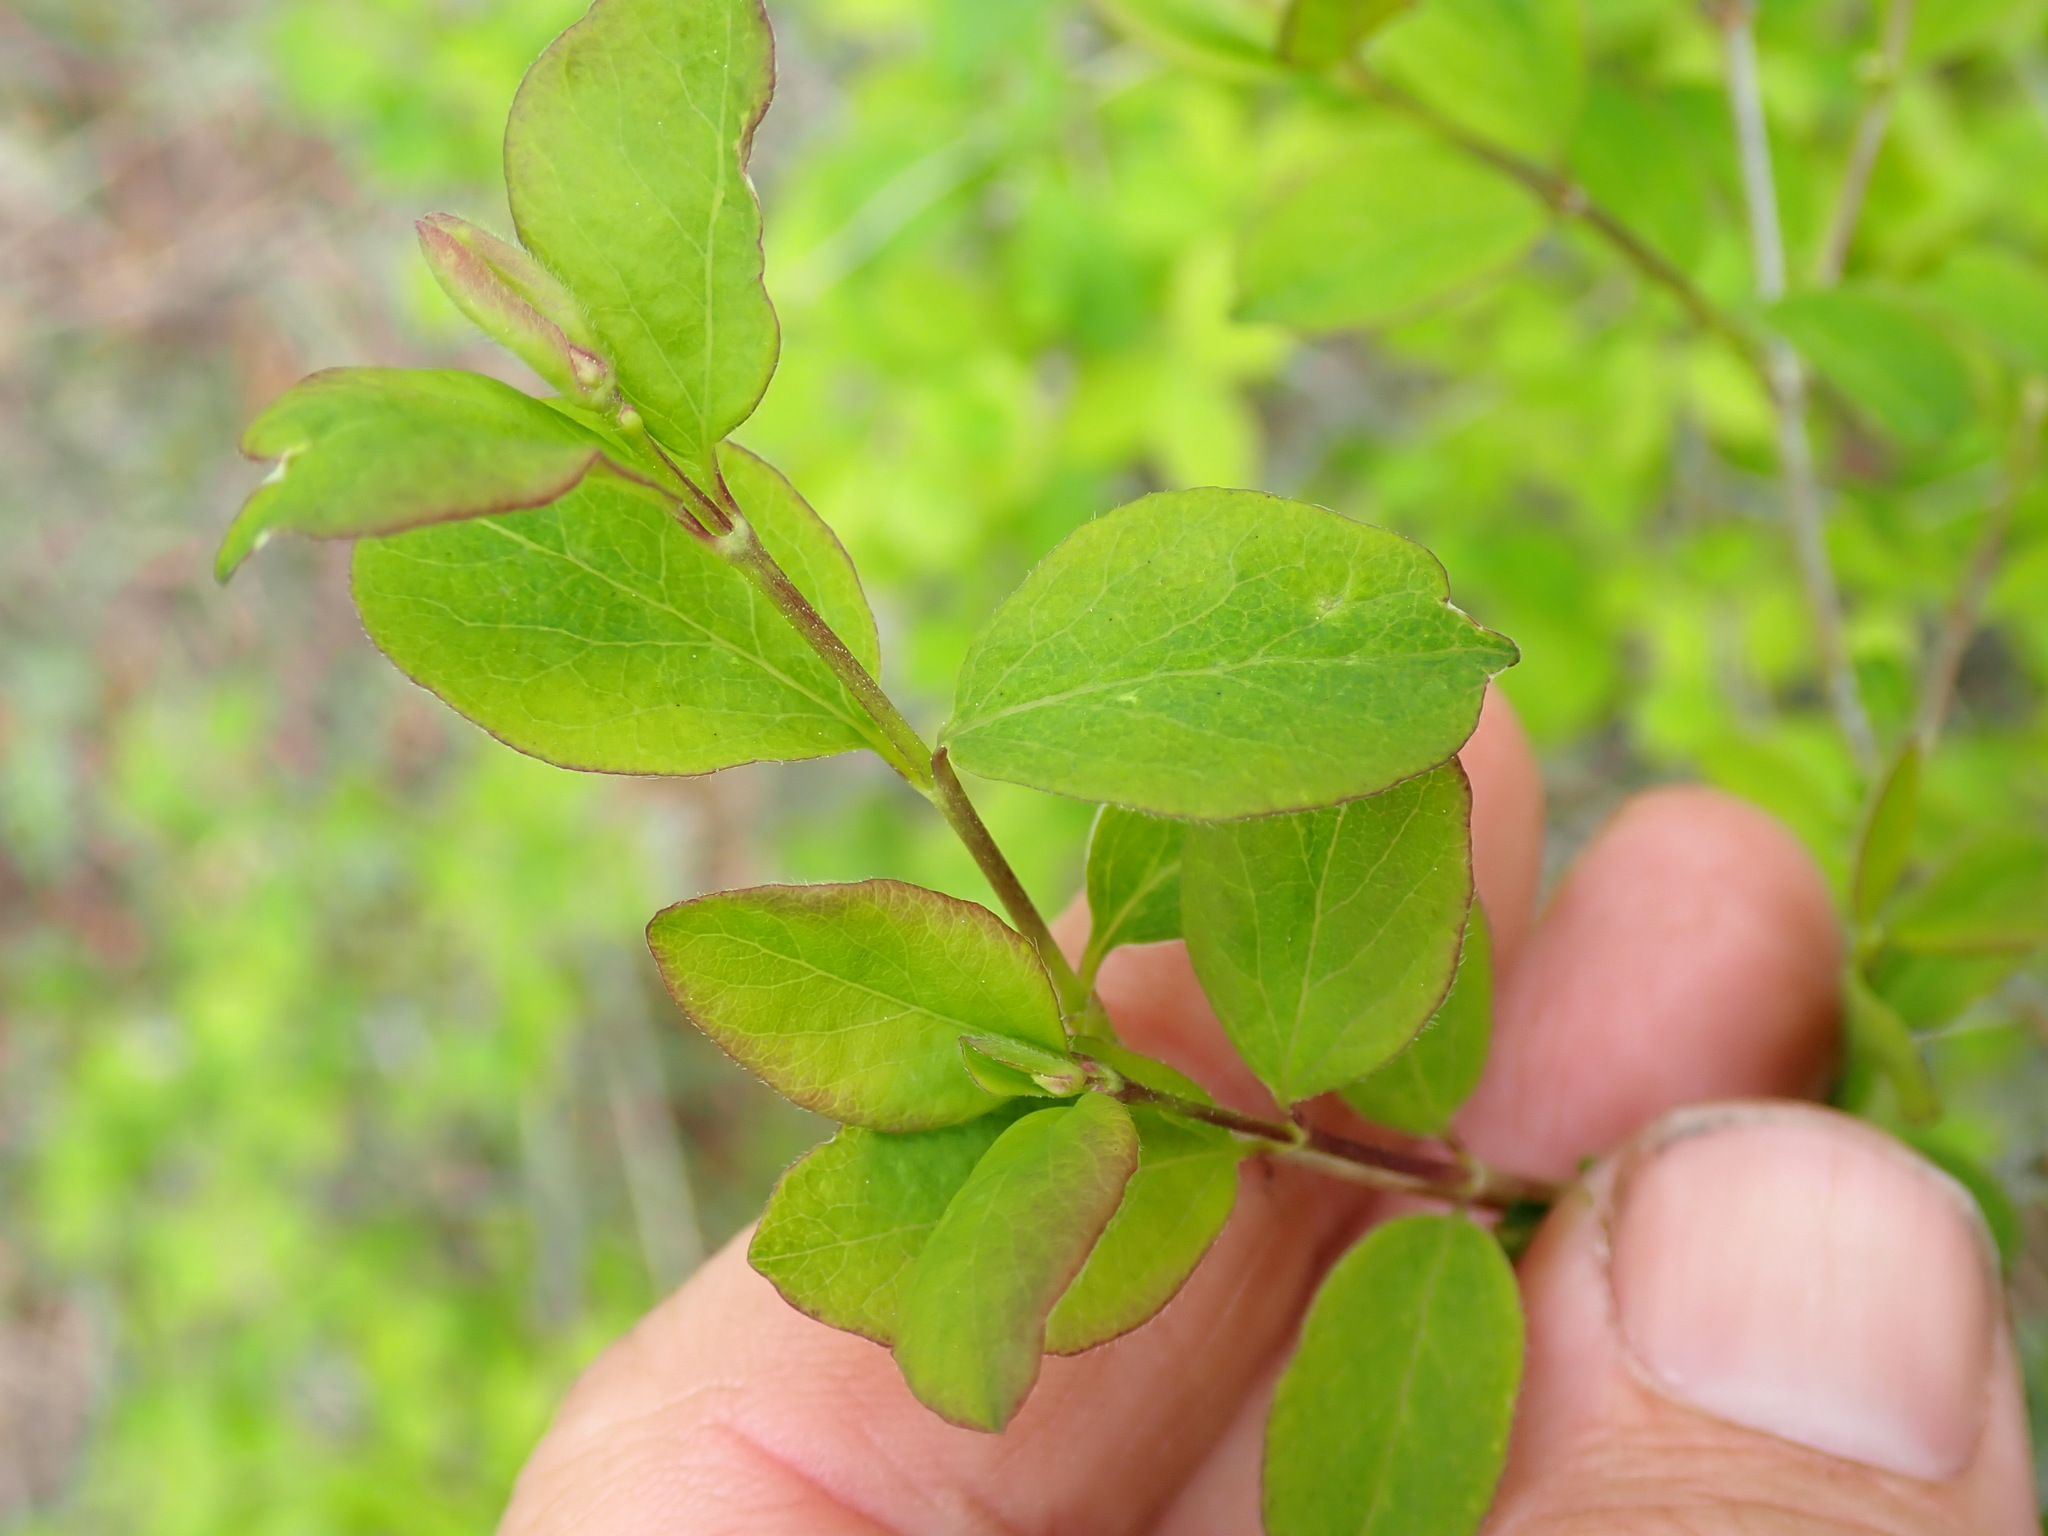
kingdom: Plantae
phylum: Tracheophyta
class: Magnoliopsida
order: Dipsacales
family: Caprifoliaceae
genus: Symphoricarpos
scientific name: Symphoricarpos
